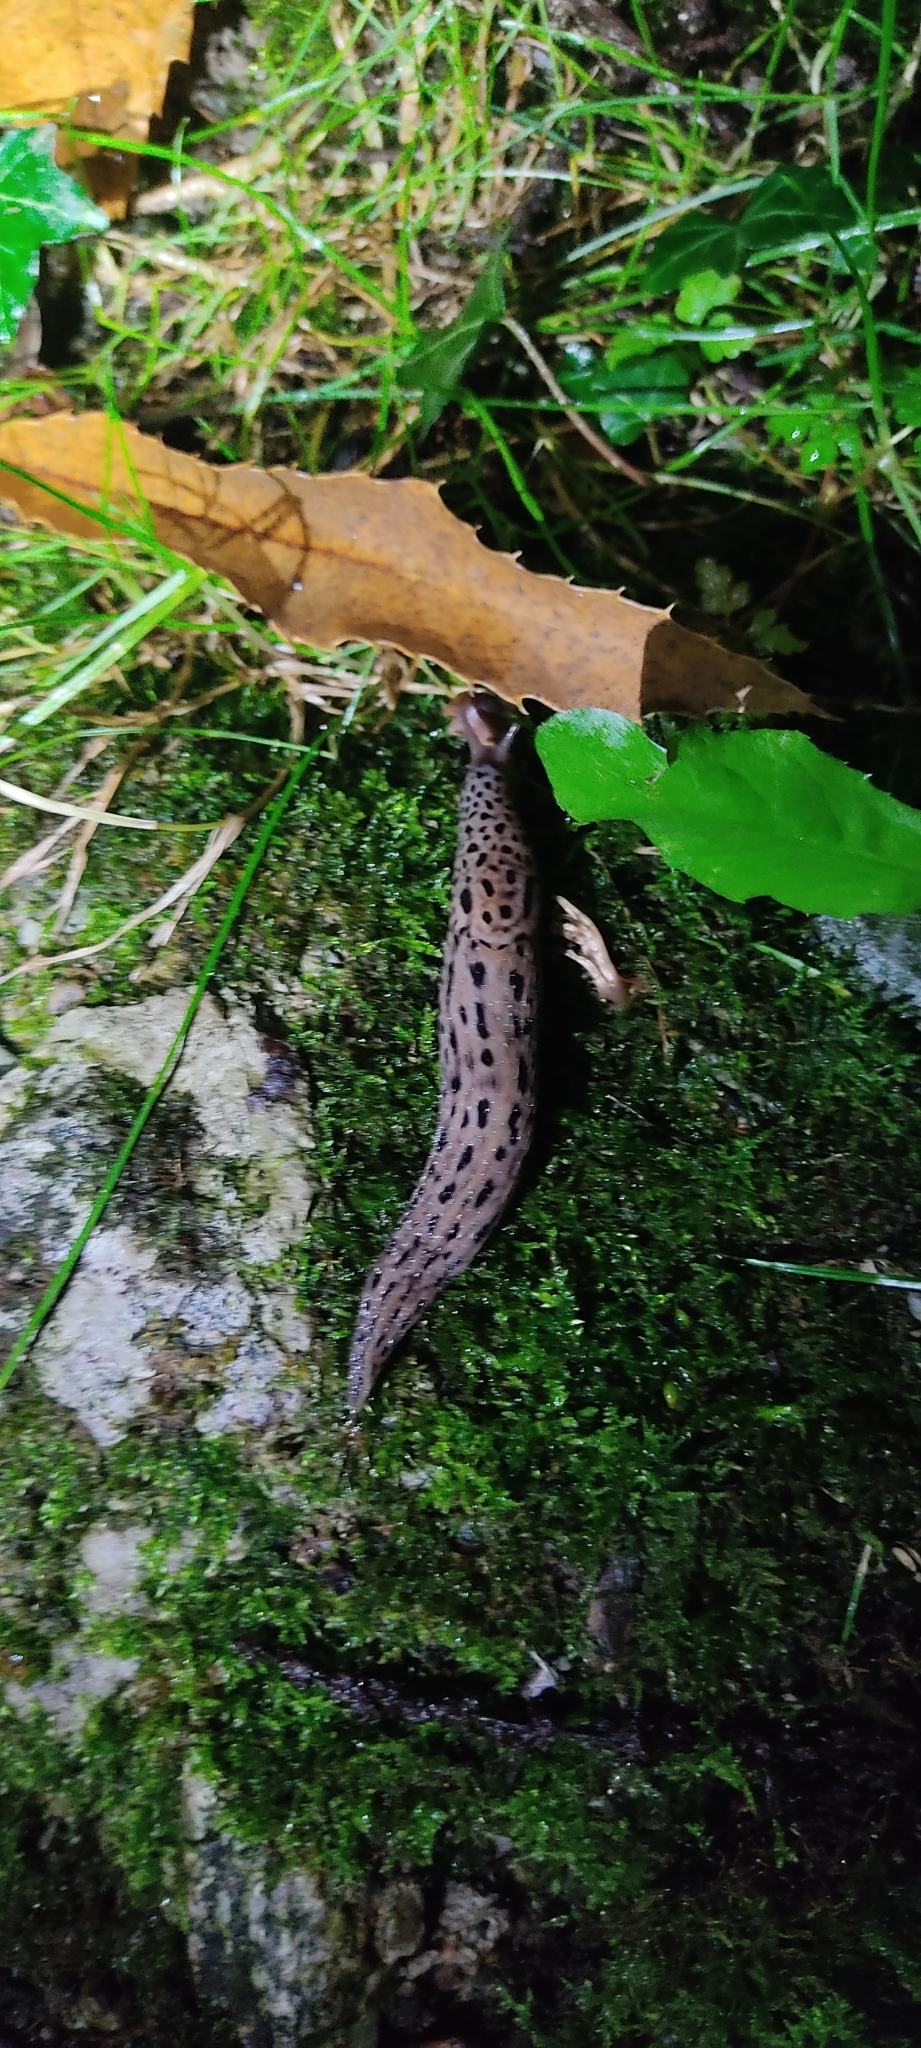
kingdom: Animalia
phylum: Mollusca
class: Gastropoda
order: Stylommatophora
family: Limacidae
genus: Limax
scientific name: Limax maximus
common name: Great grey slug
